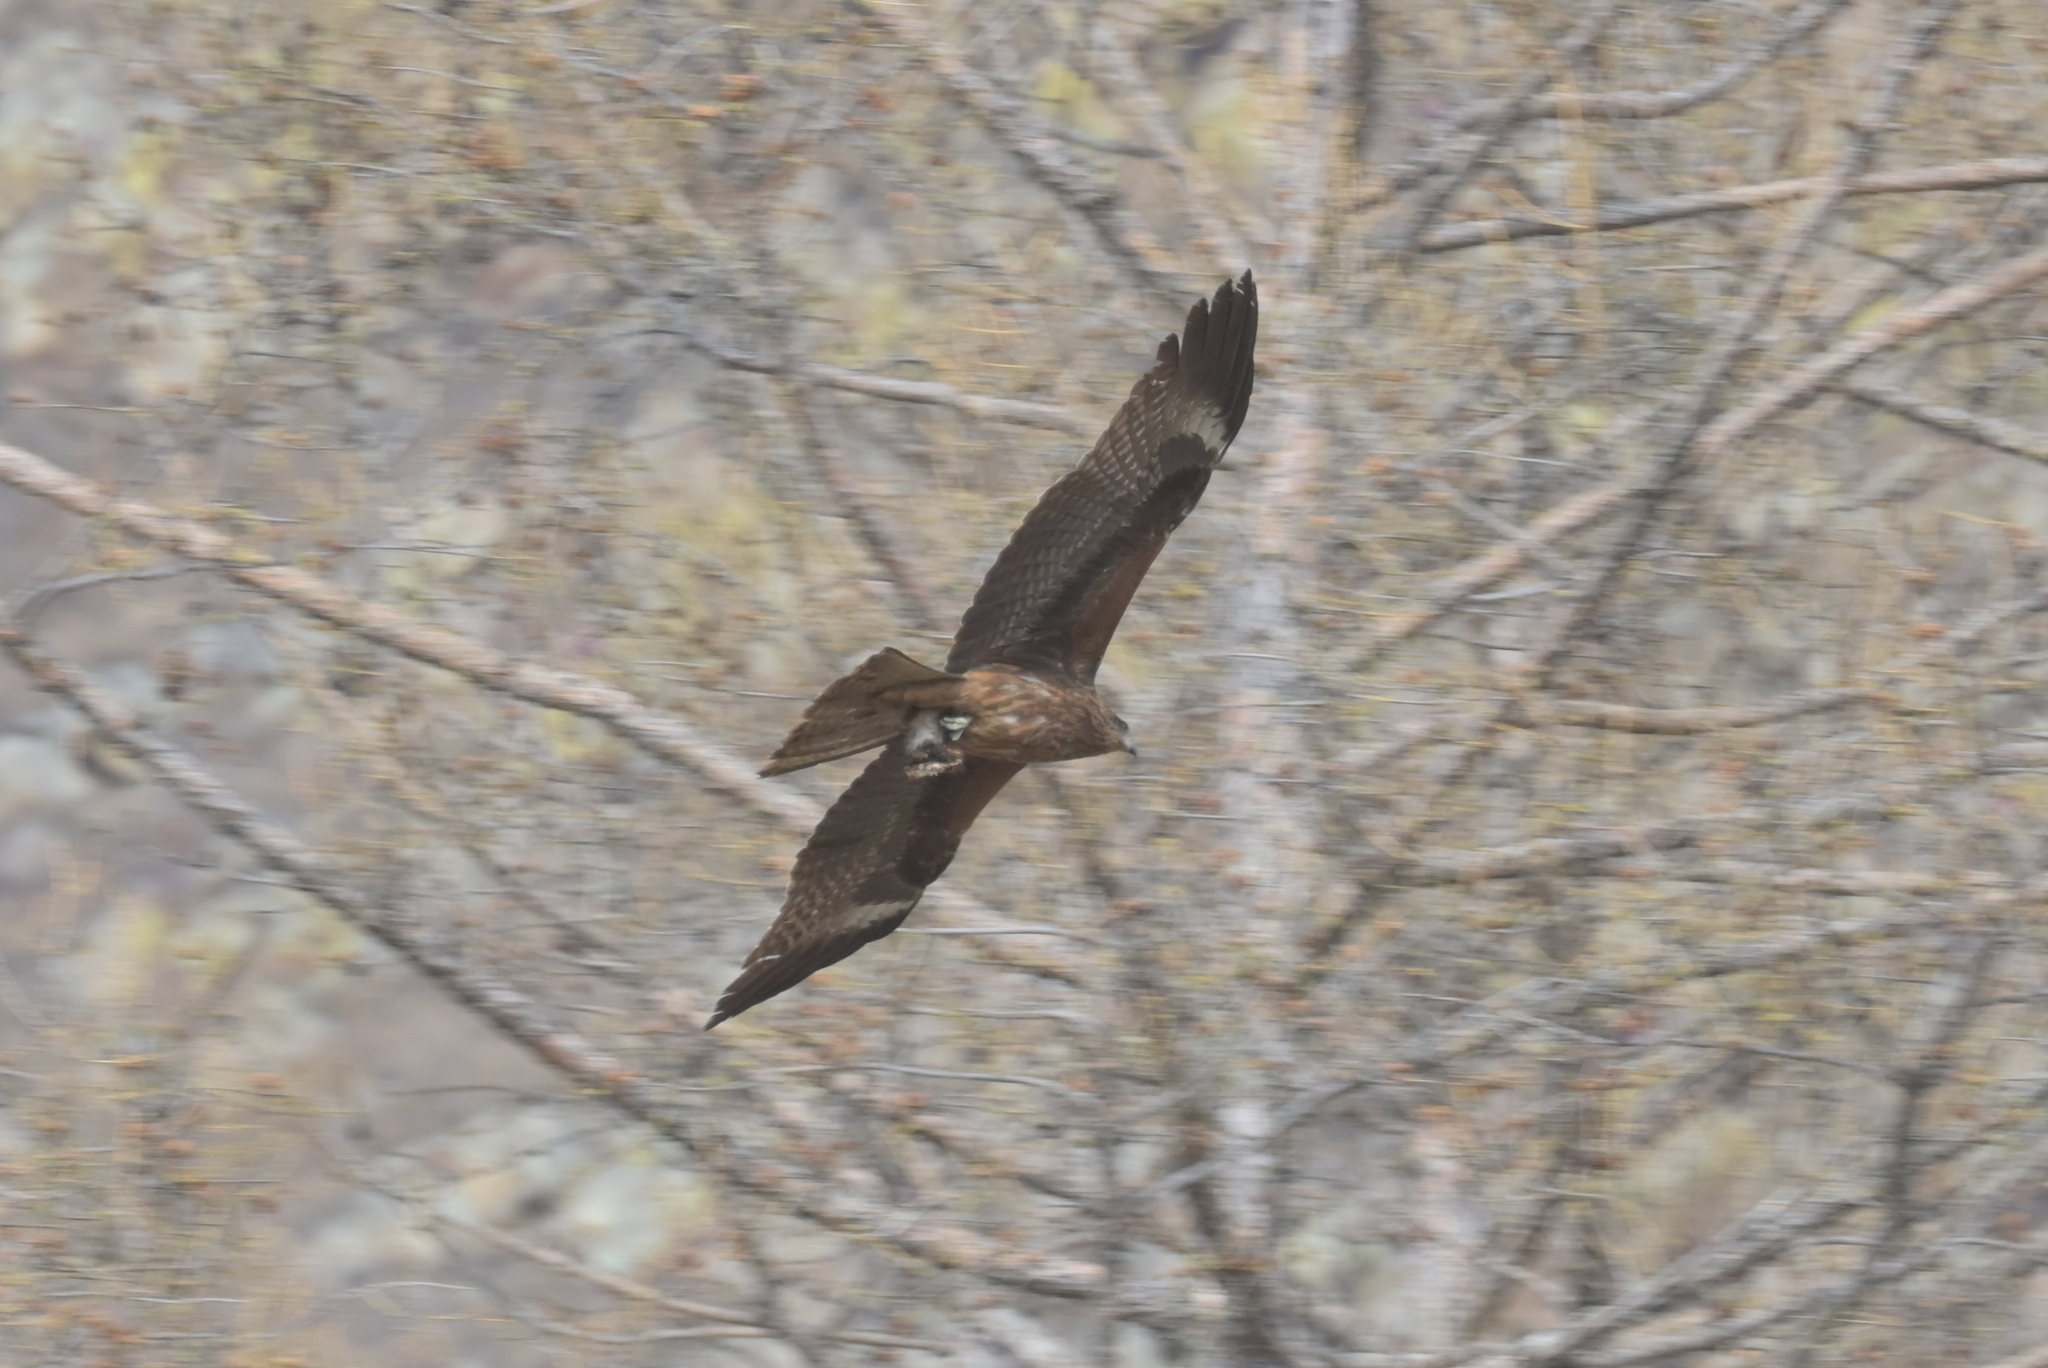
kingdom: Animalia
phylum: Chordata
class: Aves
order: Accipitriformes
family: Accipitridae
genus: Milvus
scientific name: Milvus migrans
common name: Black kite
